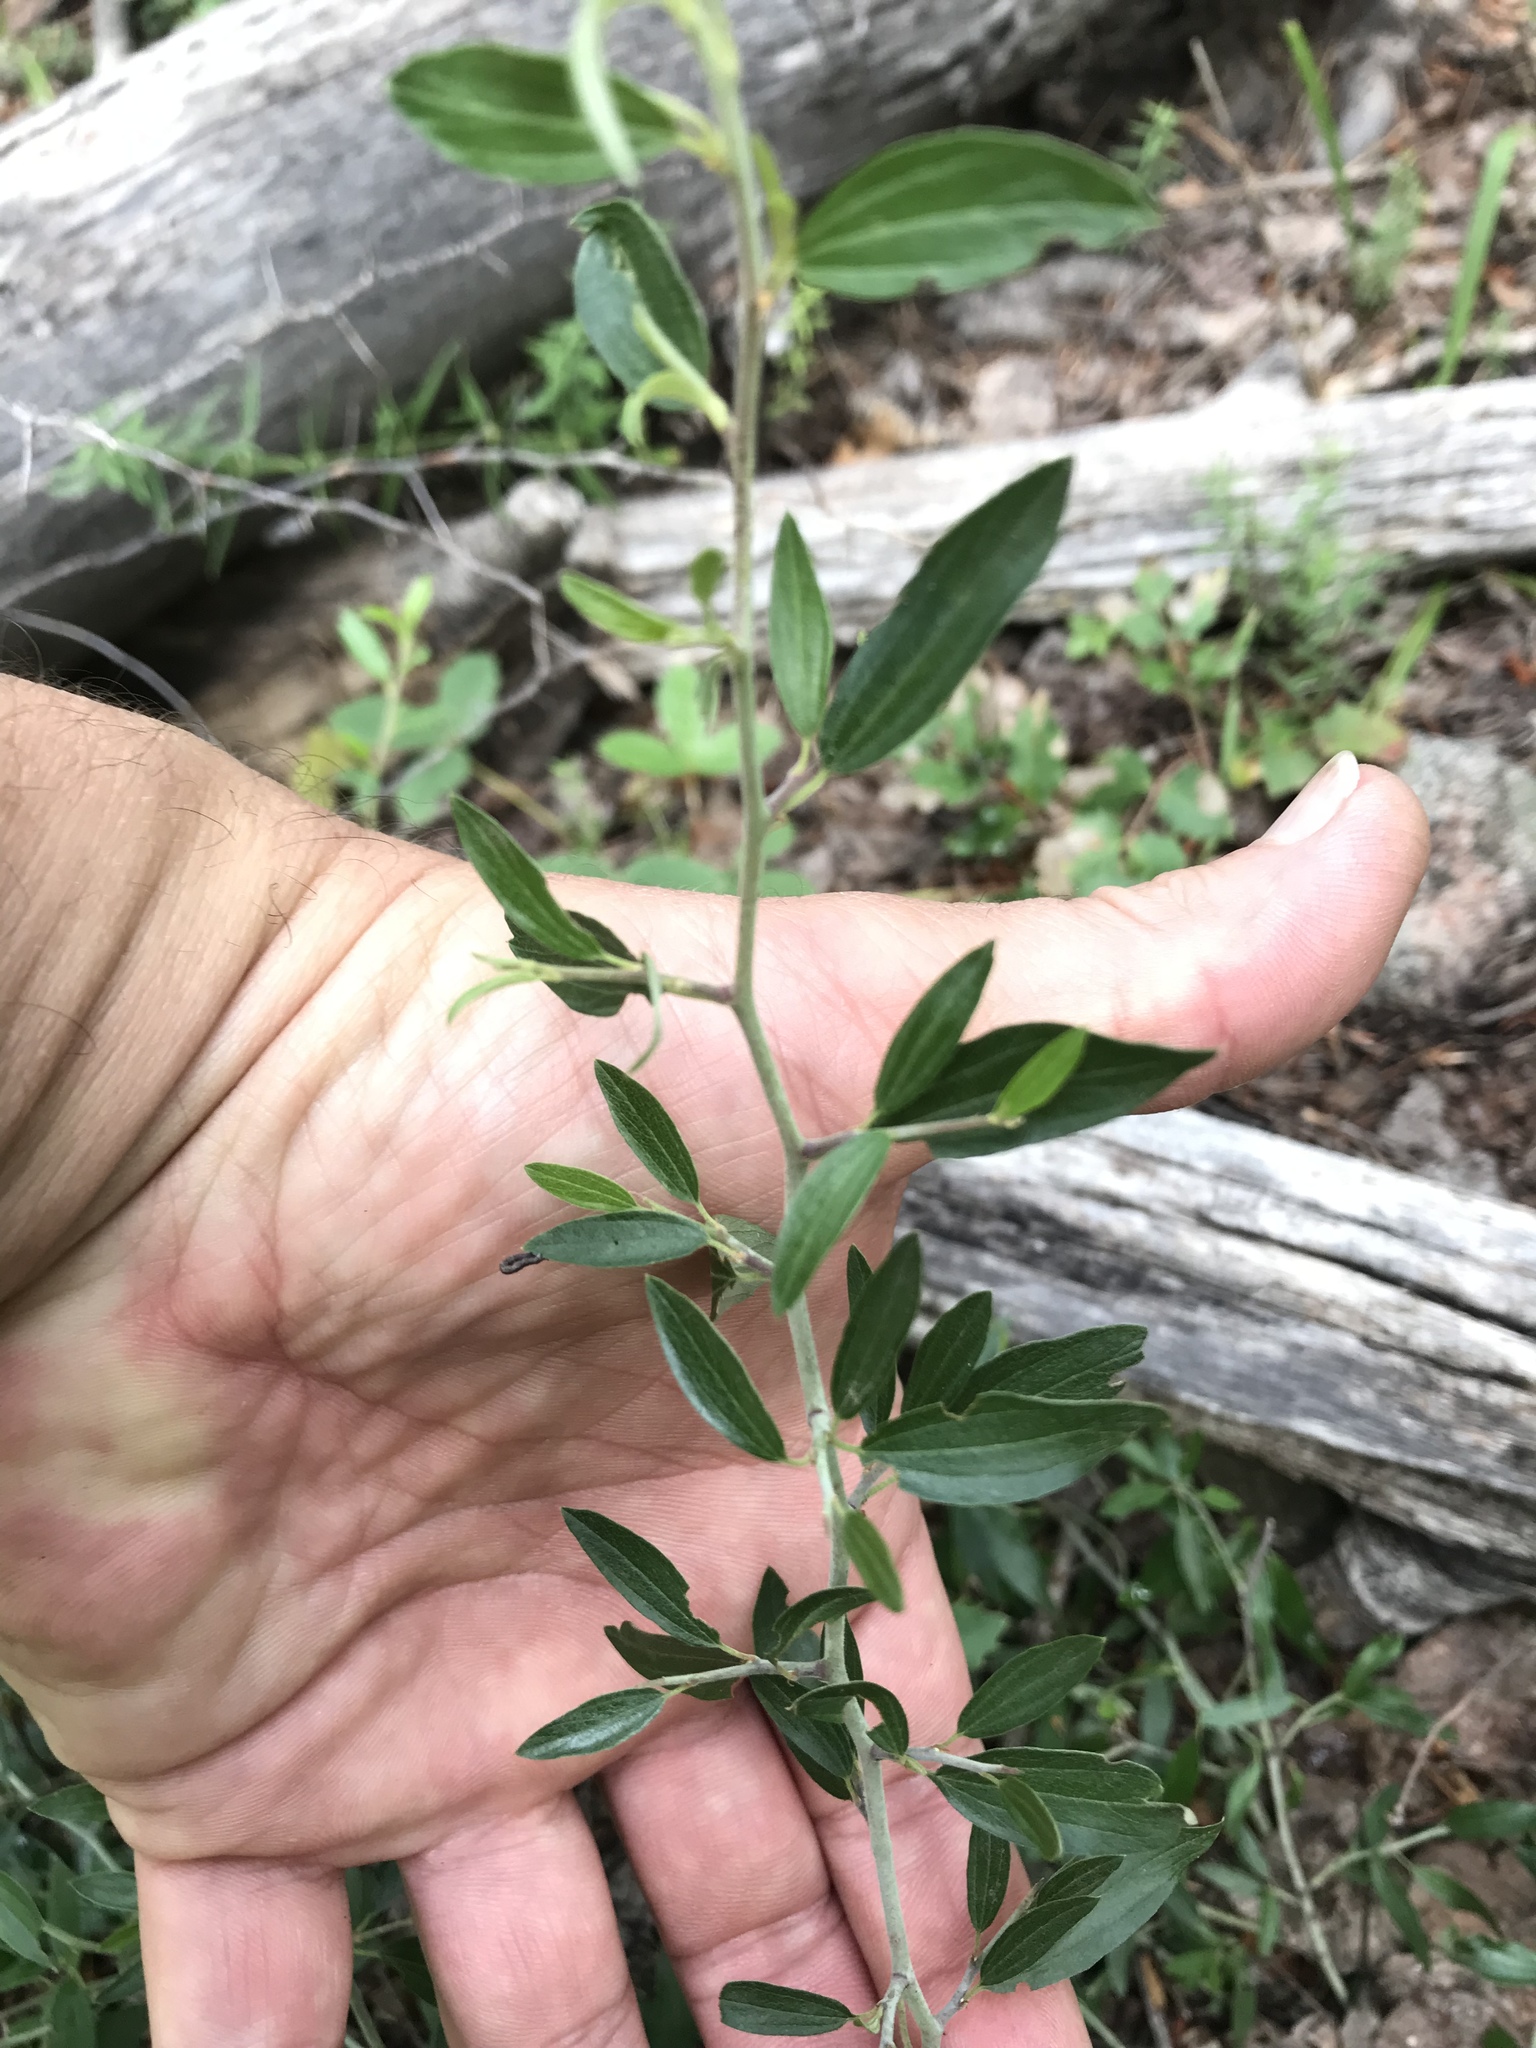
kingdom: Plantae
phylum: Tracheophyta
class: Magnoliopsida
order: Rosales
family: Rhamnaceae
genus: Ceanothus
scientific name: Ceanothus fendleri
